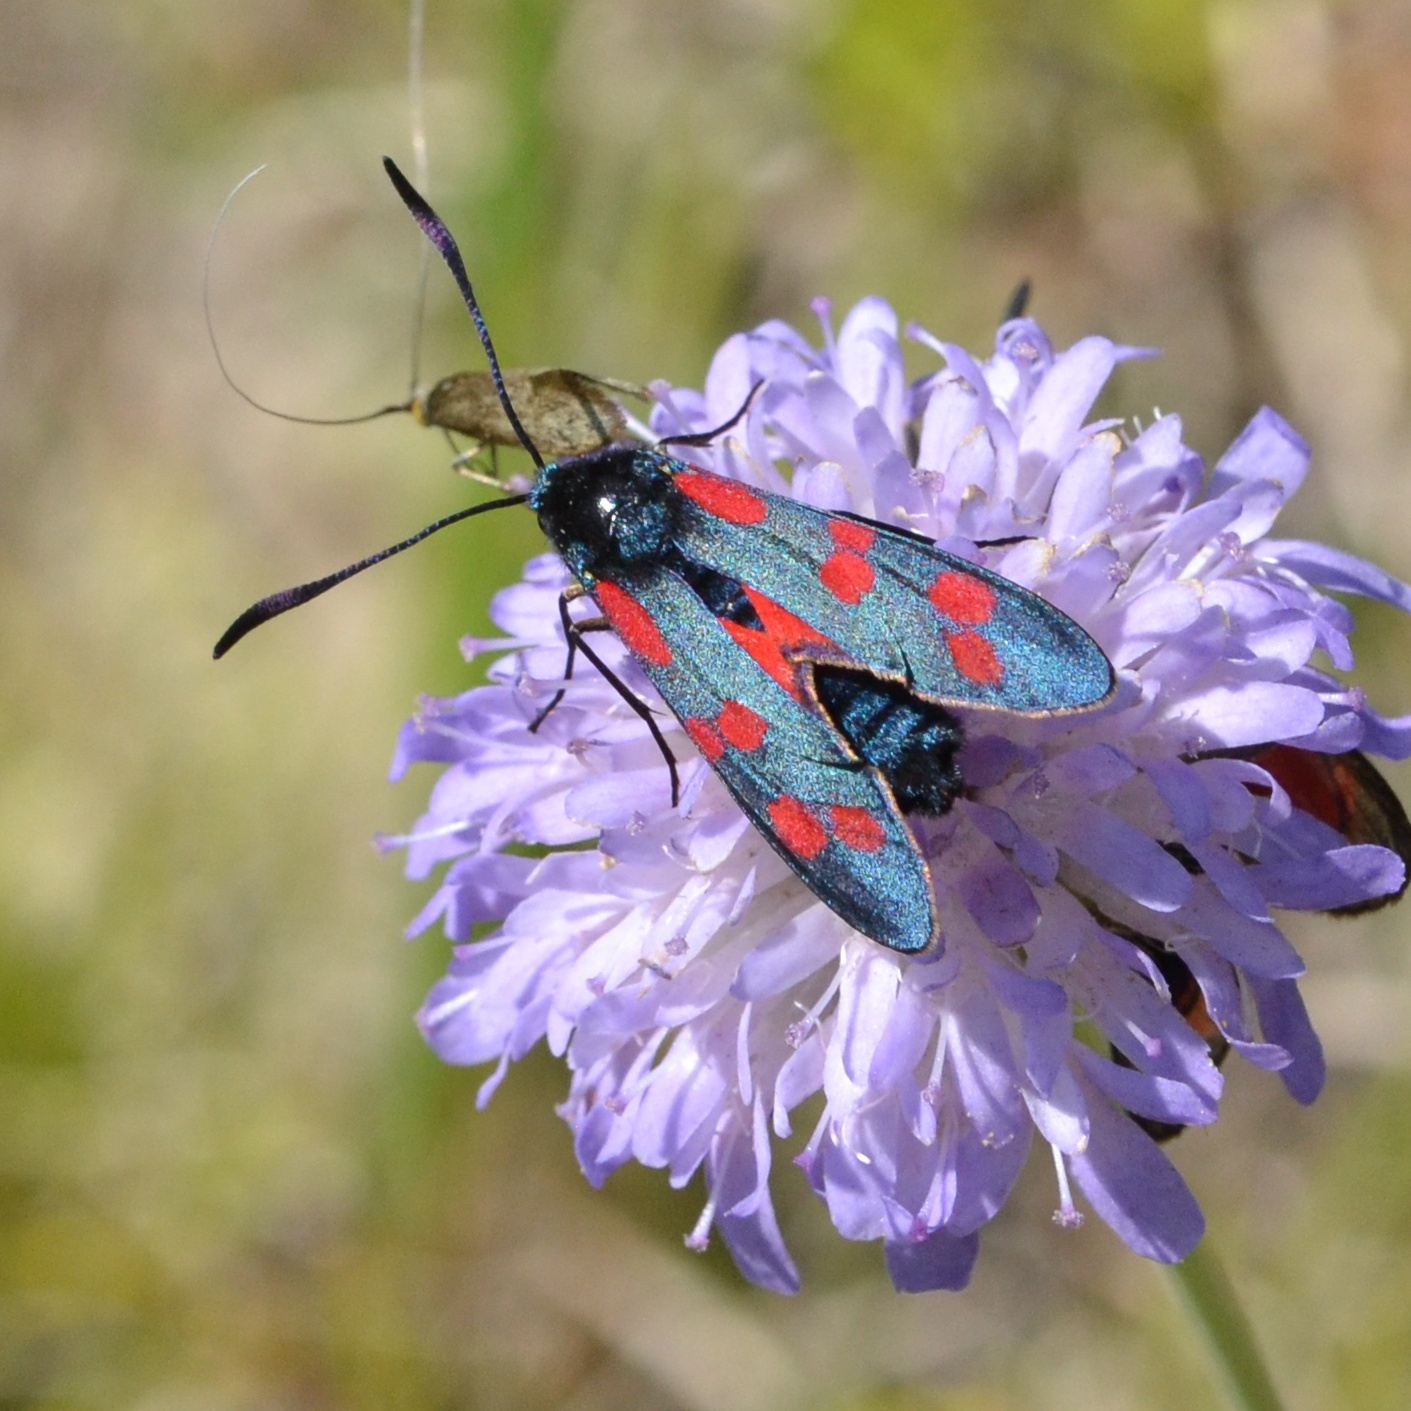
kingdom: Animalia
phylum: Arthropoda
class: Insecta
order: Lepidoptera
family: Zygaenidae
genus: Zygaena
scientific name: Zygaena filipendulae
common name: Six-spot burnet
